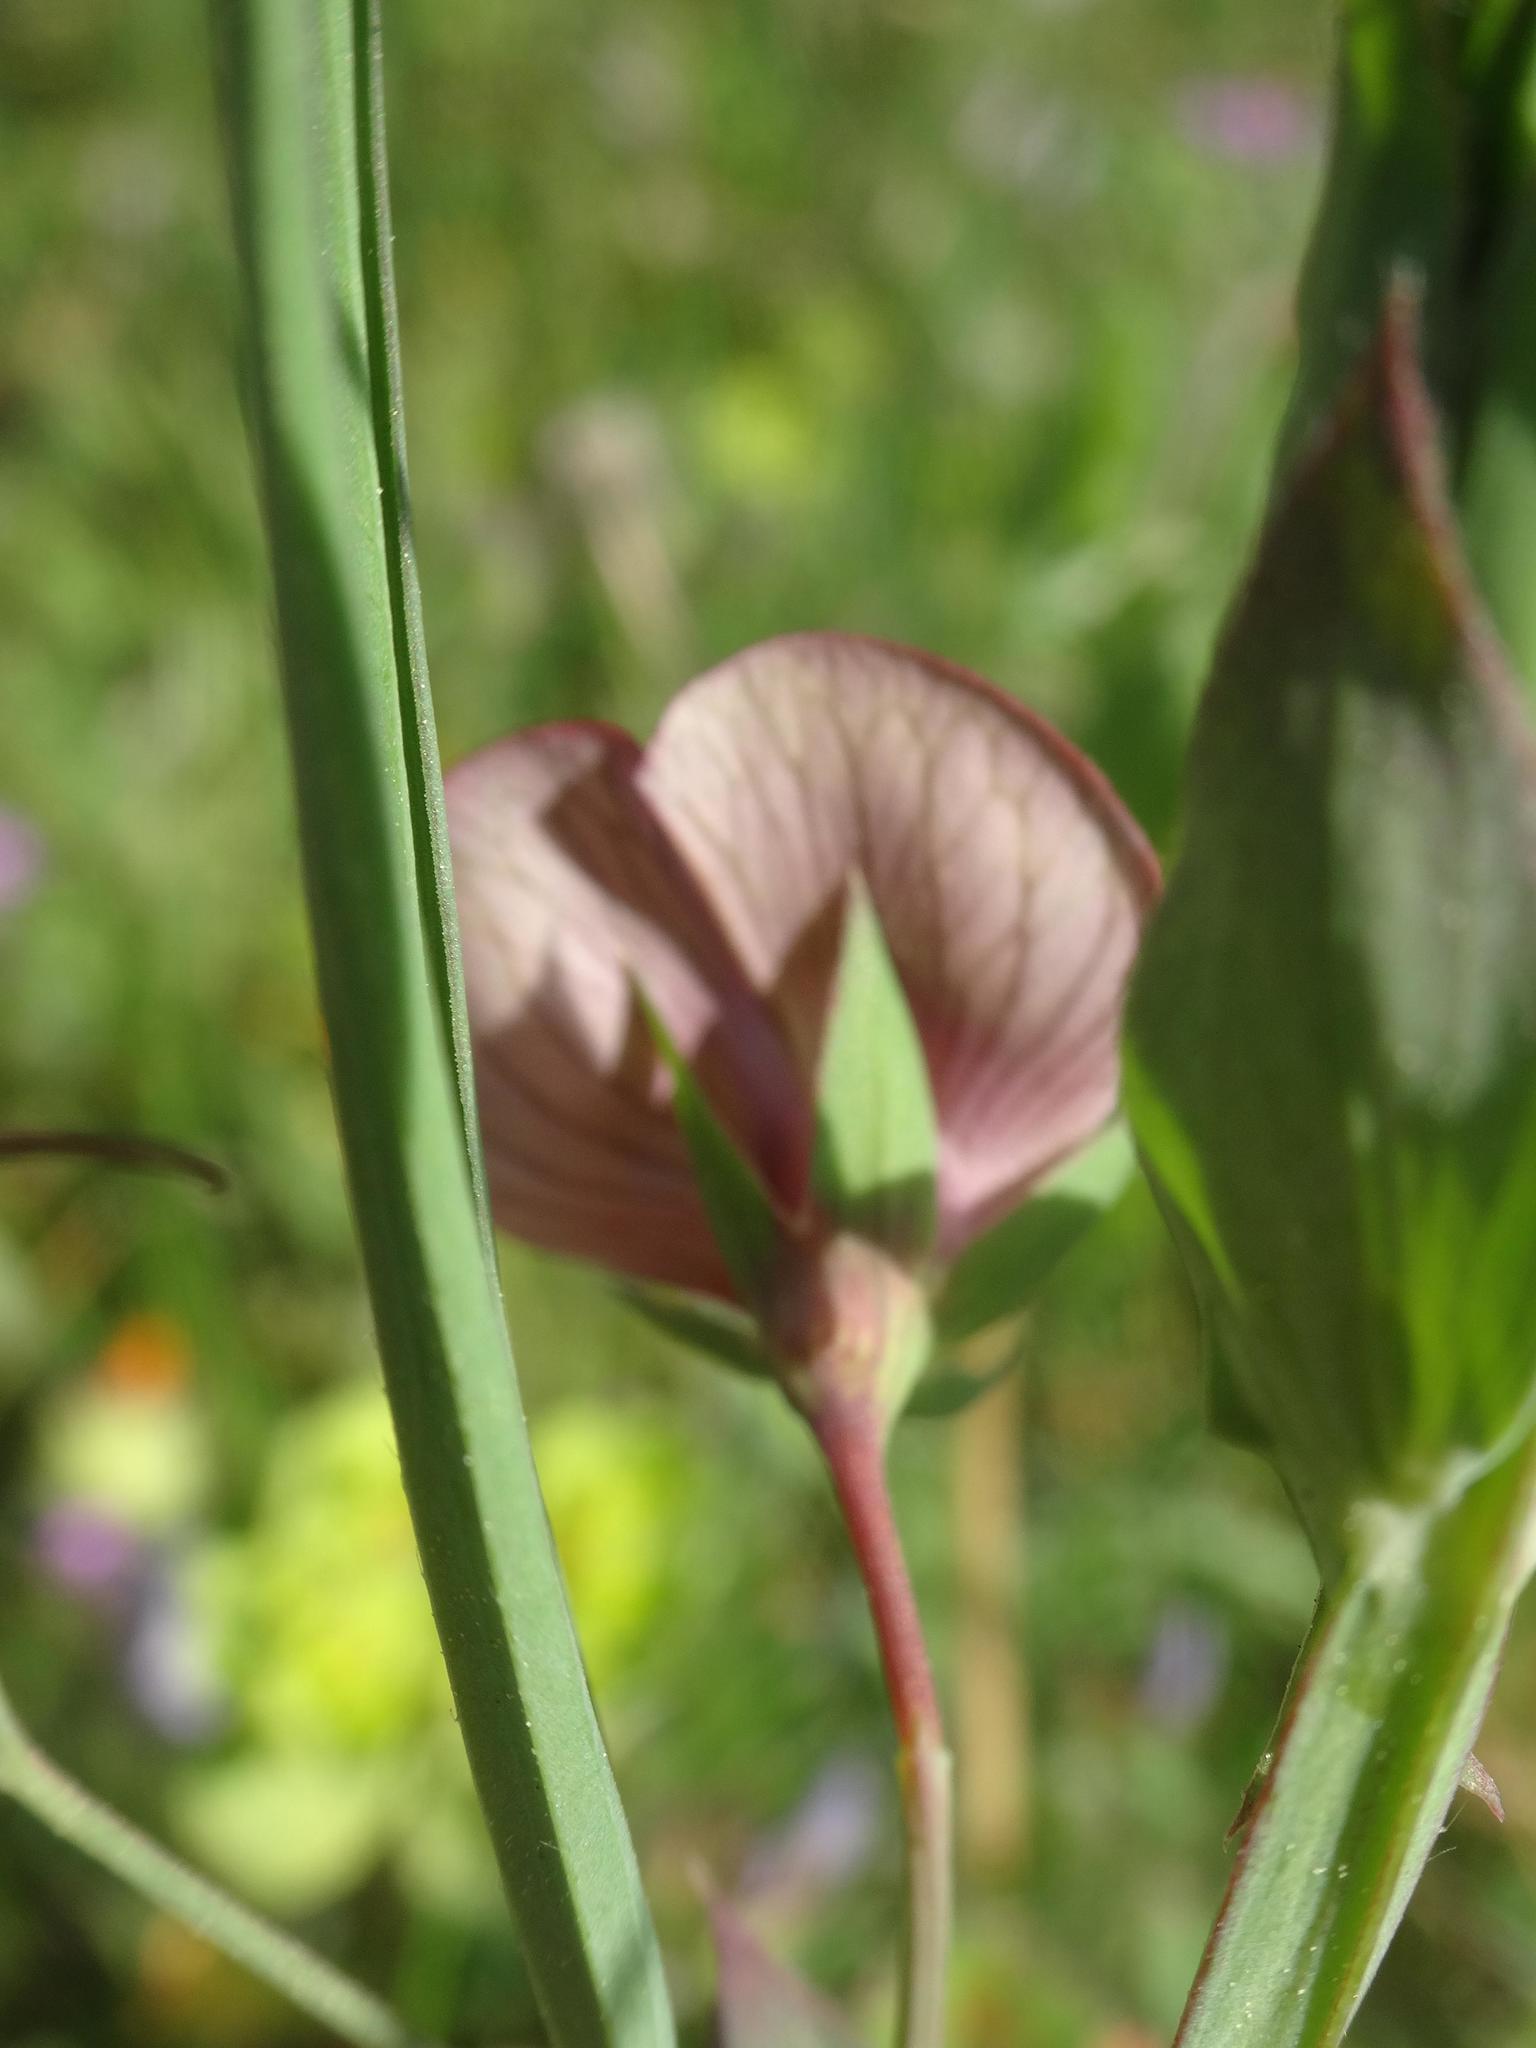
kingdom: Plantae
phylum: Tracheophyta
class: Magnoliopsida
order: Fabales
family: Fabaceae
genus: Lathyrus
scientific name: Lathyrus cicera
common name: Red vetchling
